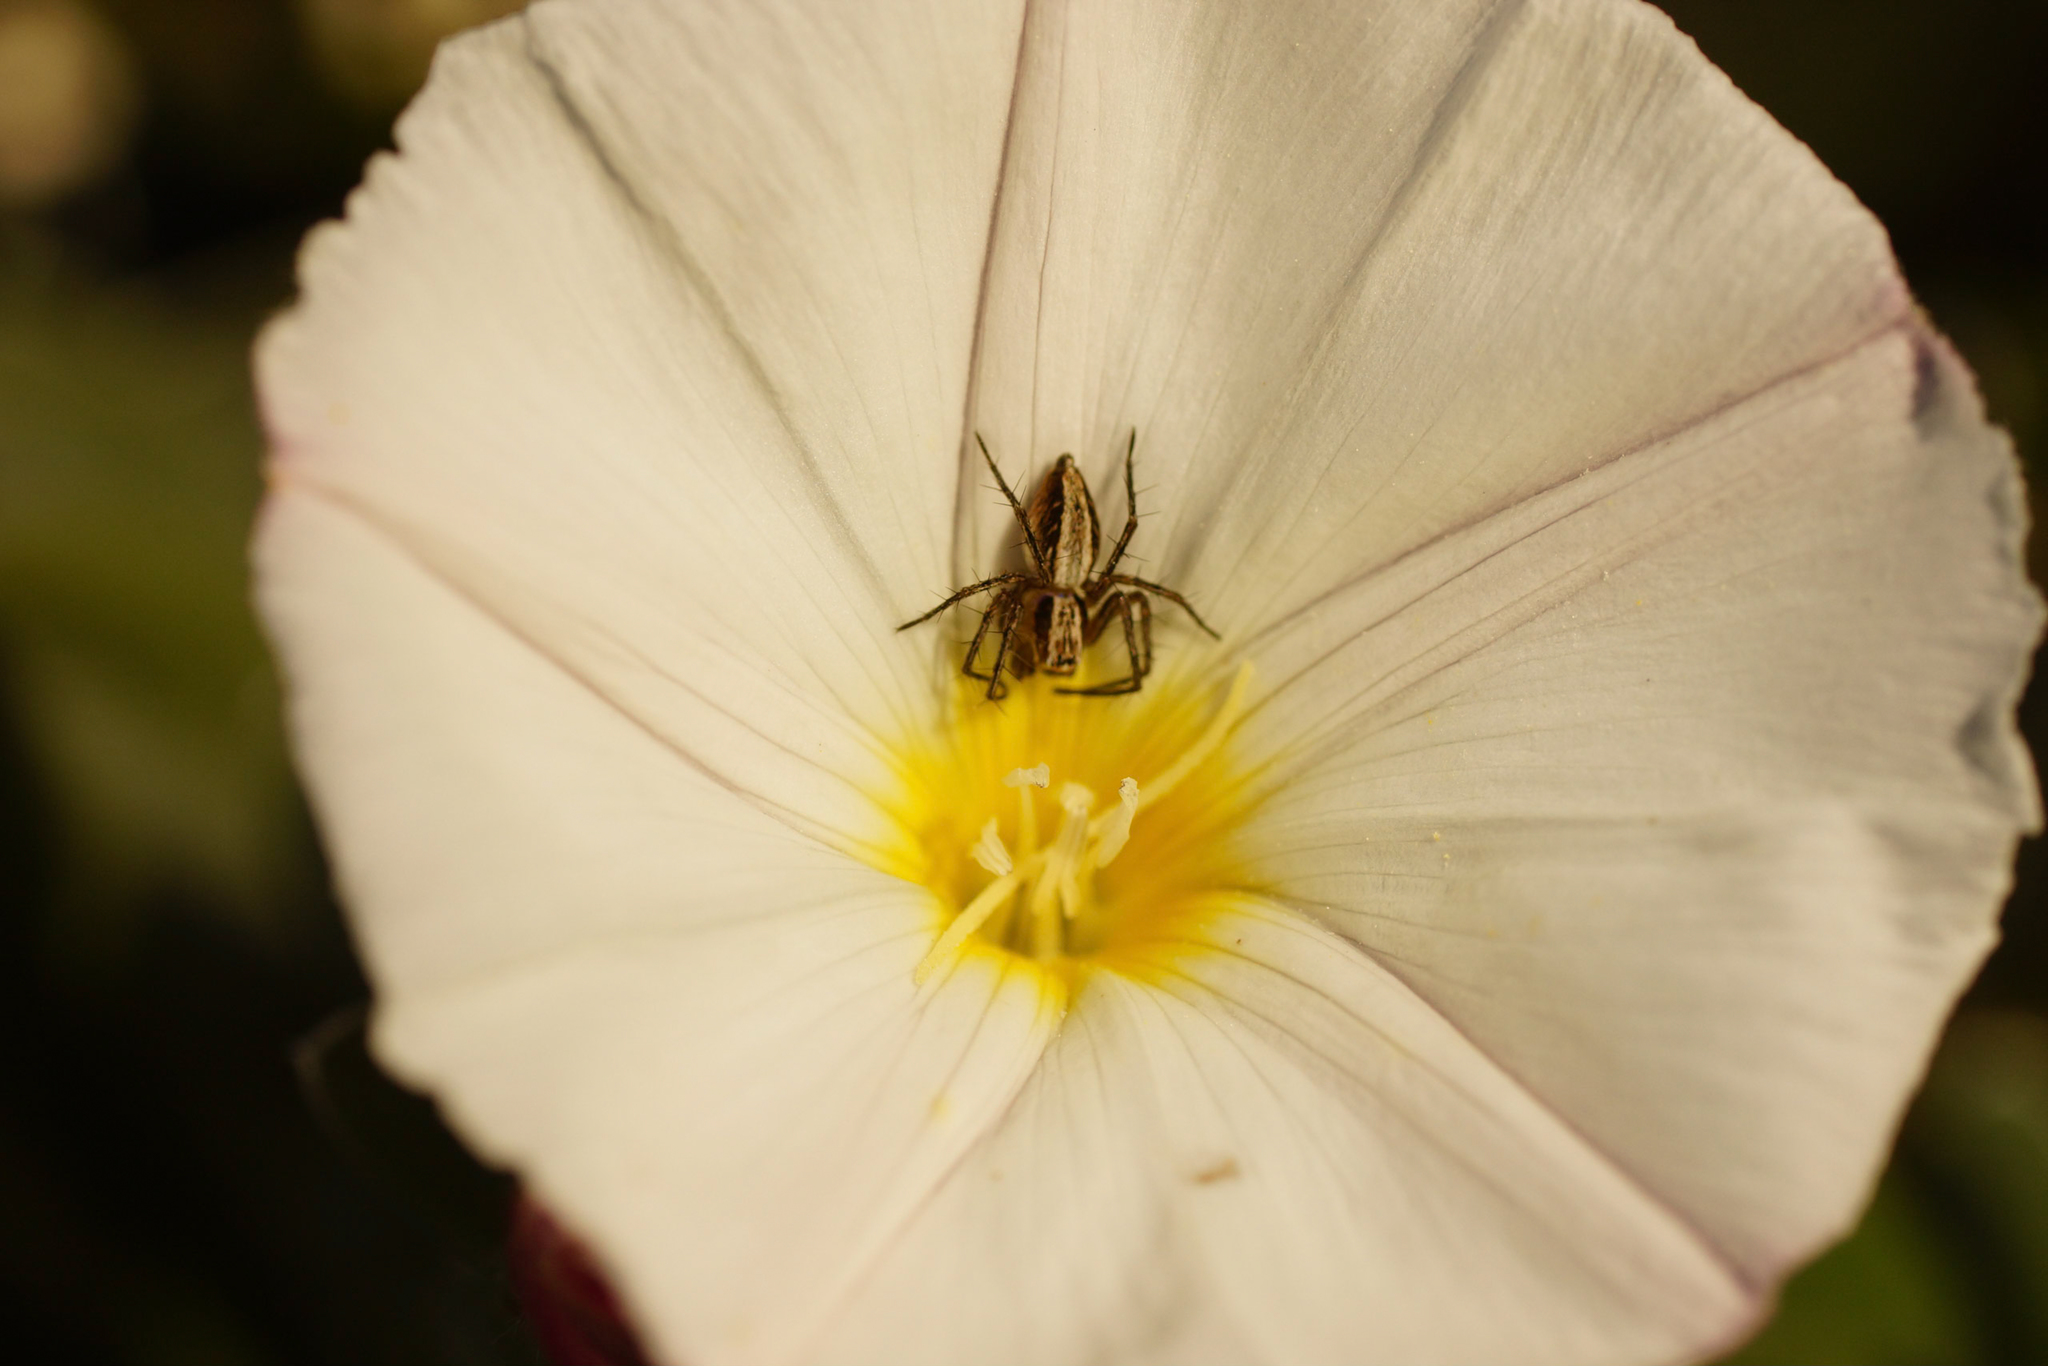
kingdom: Animalia
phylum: Arthropoda
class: Arachnida
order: Araneae
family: Oxyopidae
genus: Oxyopes
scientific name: Oxyopes
